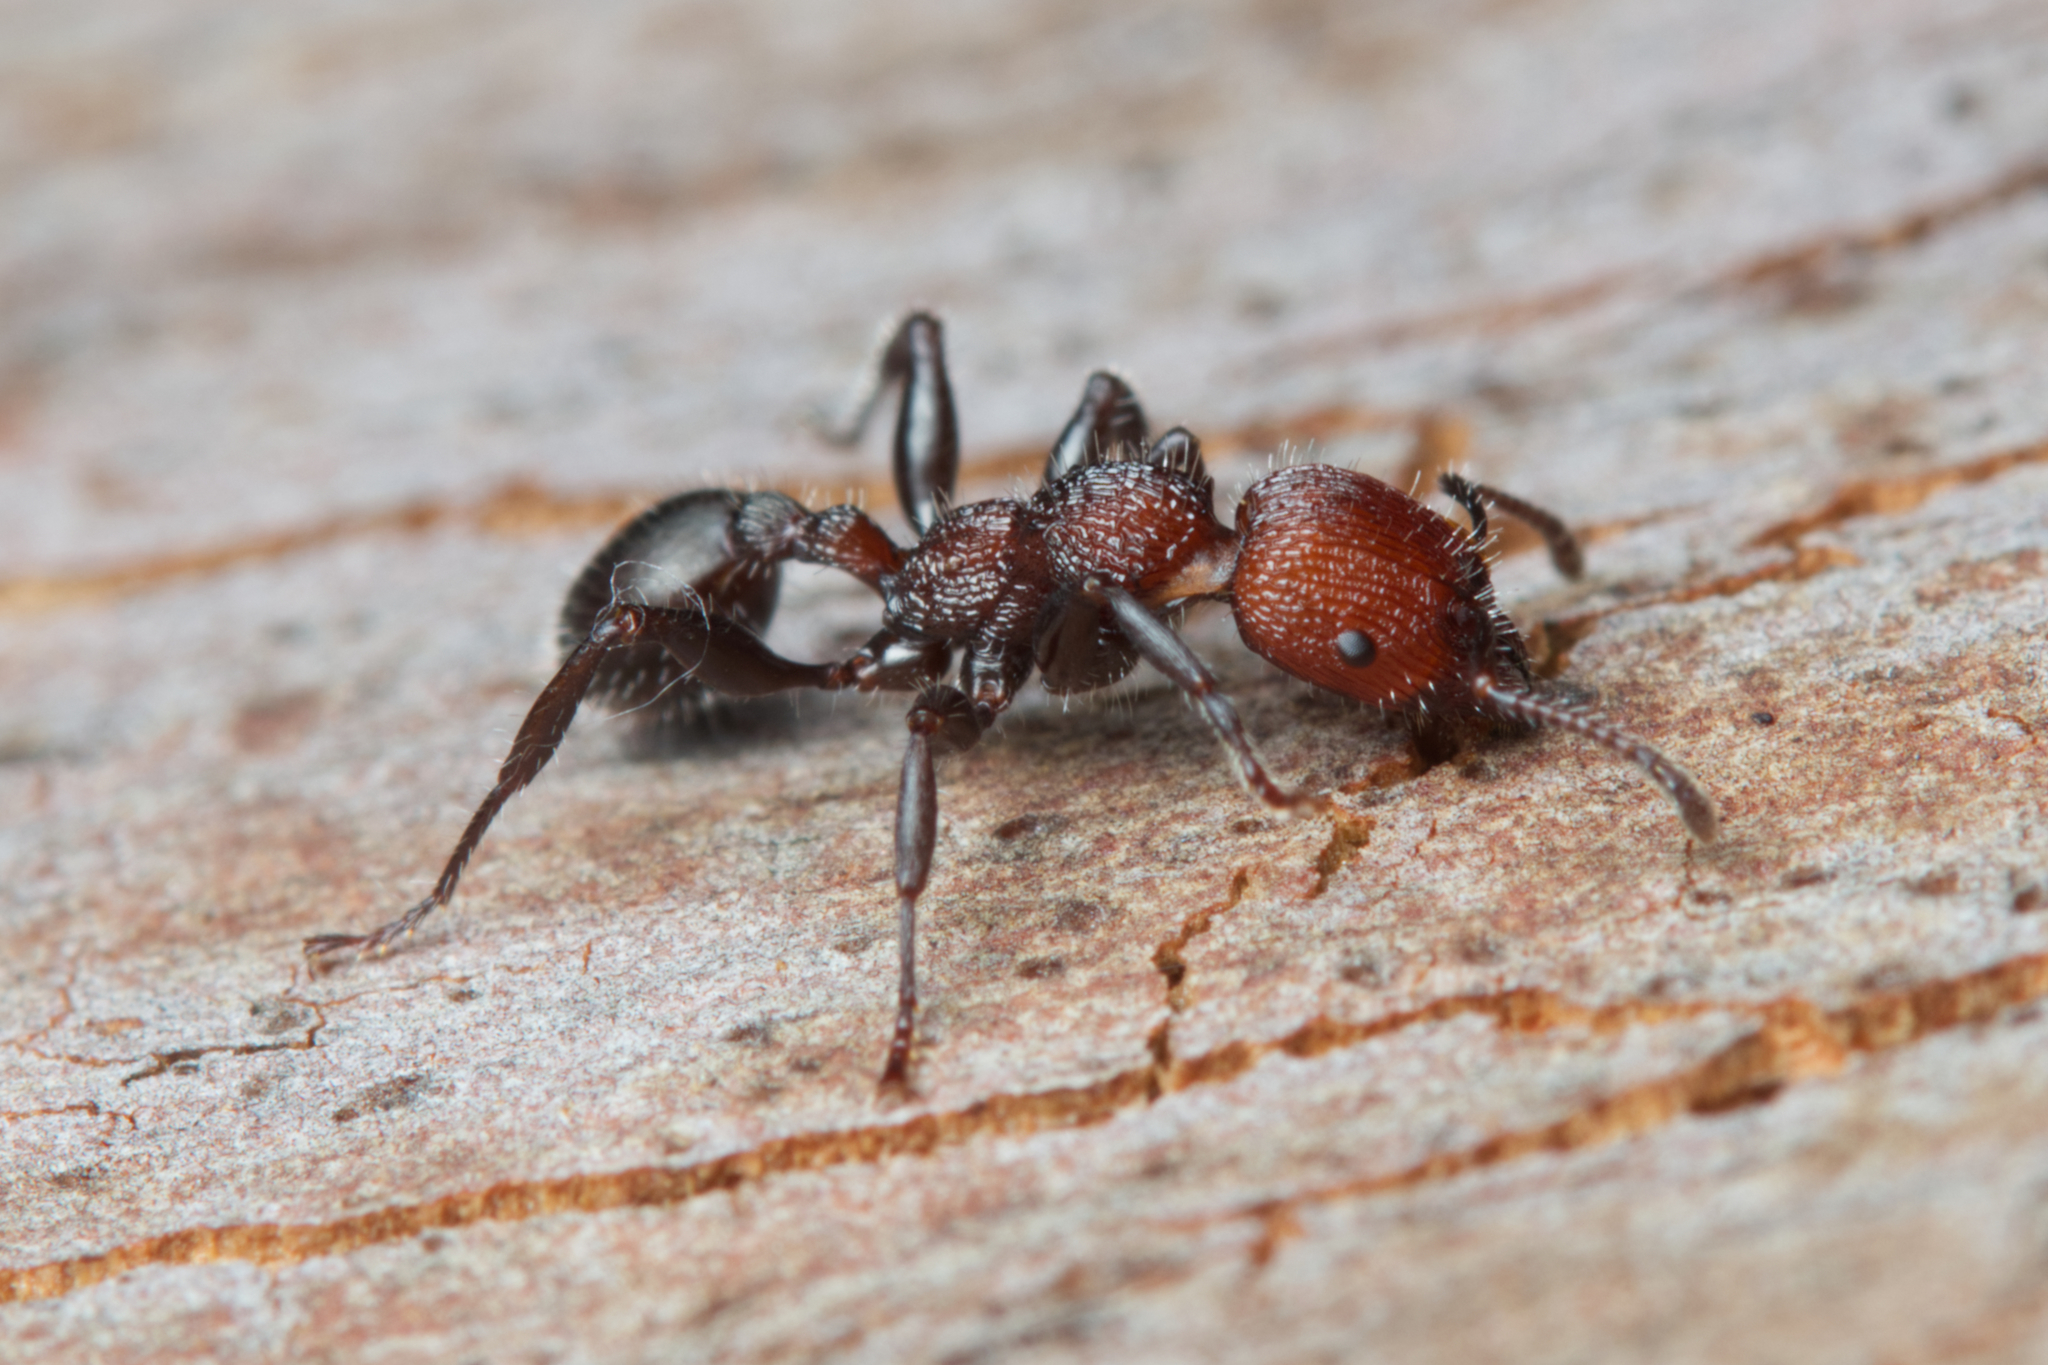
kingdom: Animalia
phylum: Arthropoda
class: Insecta
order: Hymenoptera
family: Formicidae
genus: Podomyrma
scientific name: Podomyrma micans
